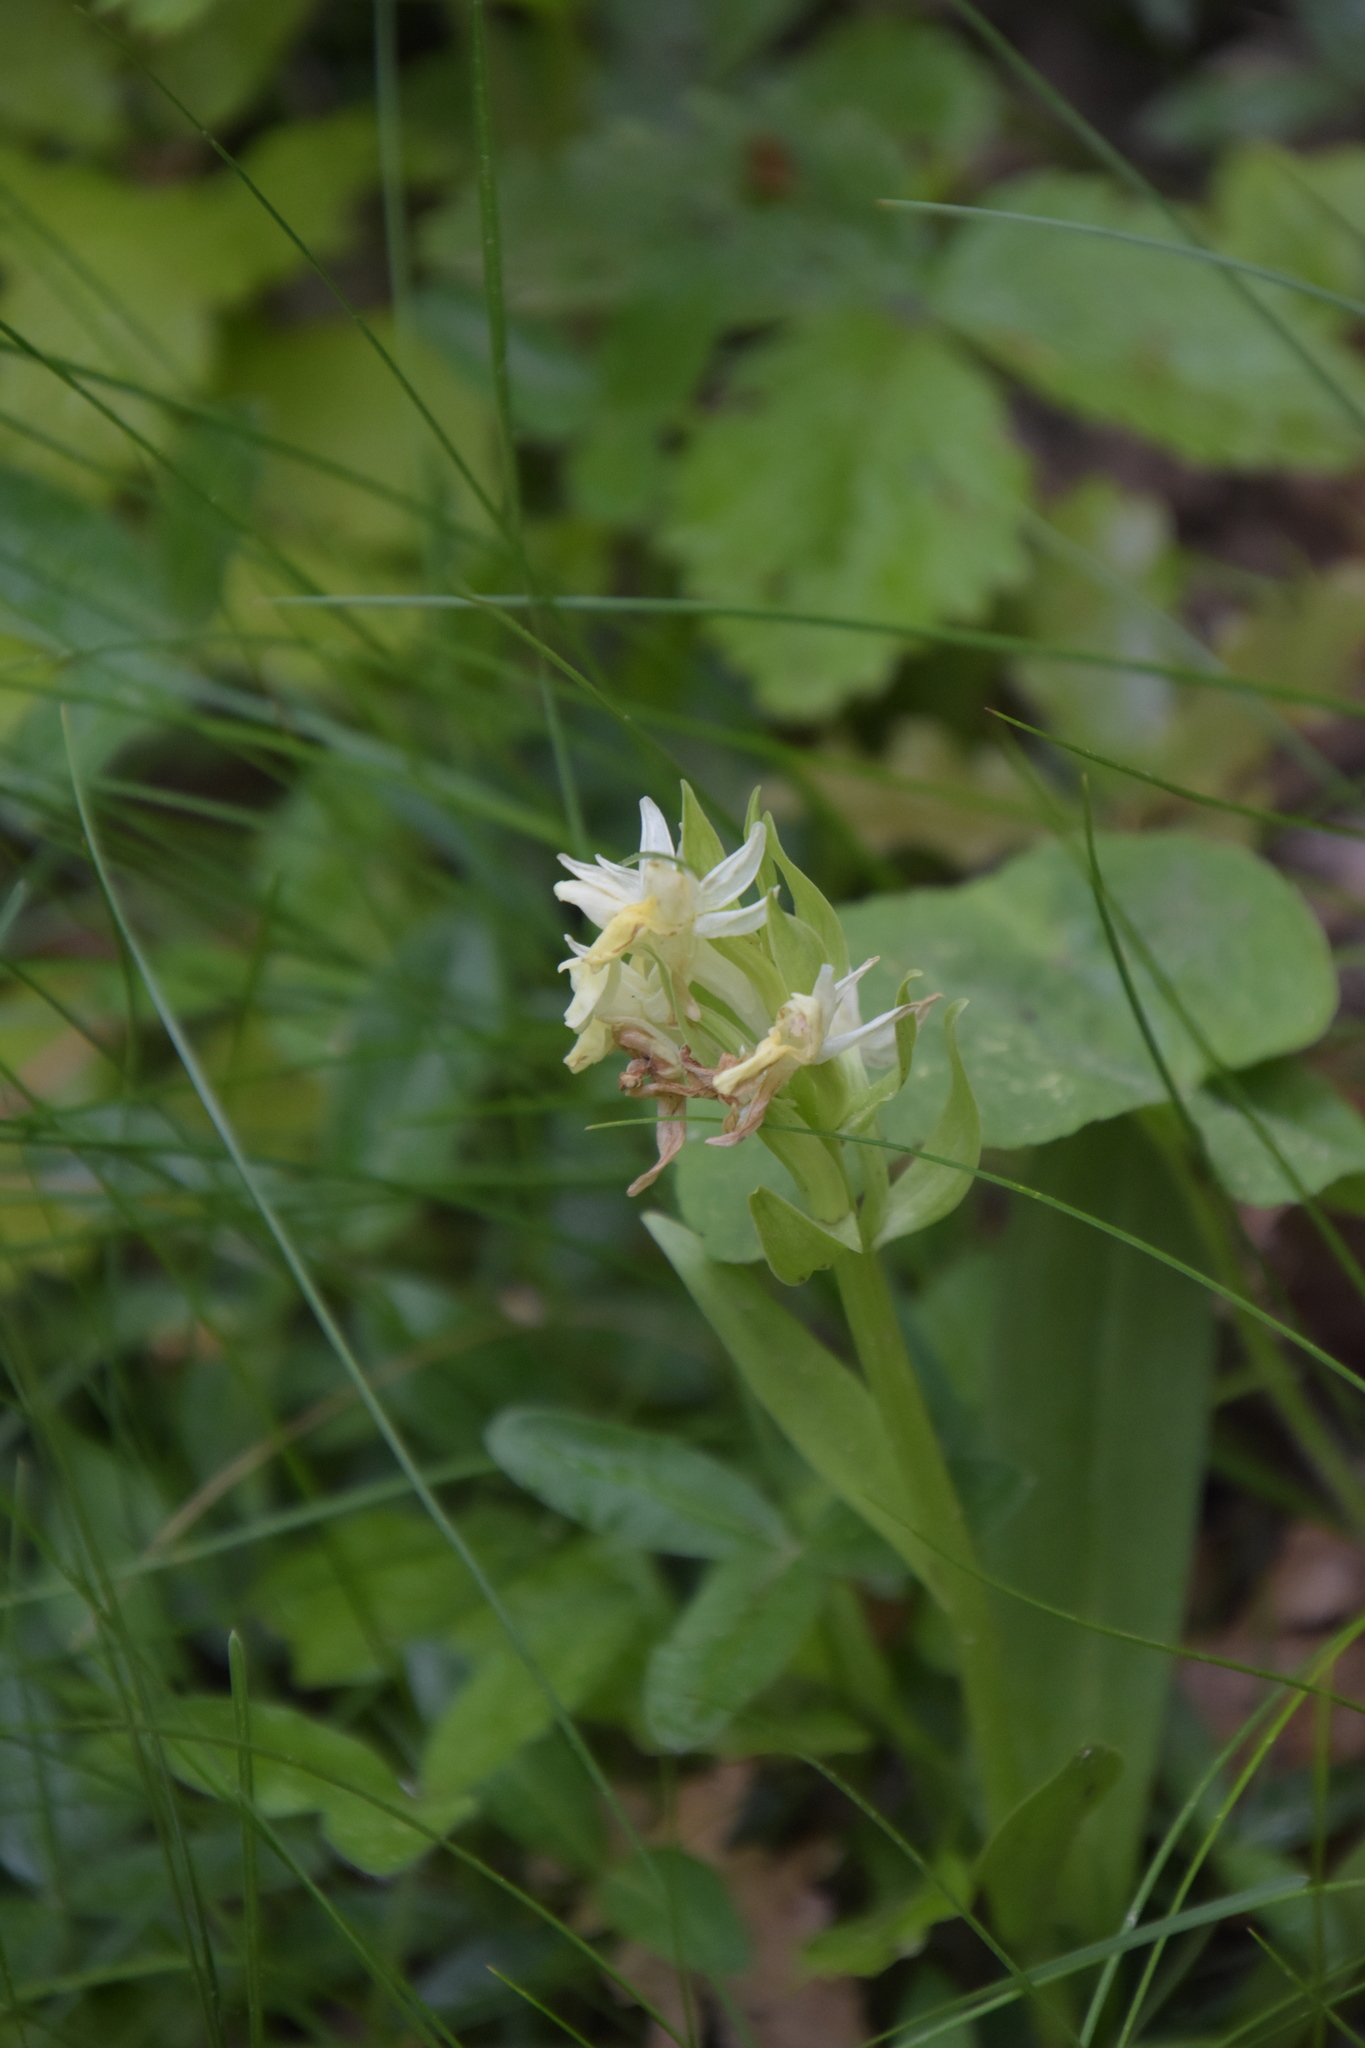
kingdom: Plantae
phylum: Tracheophyta
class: Liliopsida
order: Asparagales
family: Orchidaceae
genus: Dactylorhiza
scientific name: Dactylorhiza sambucina
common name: Elder-flowered orchid
